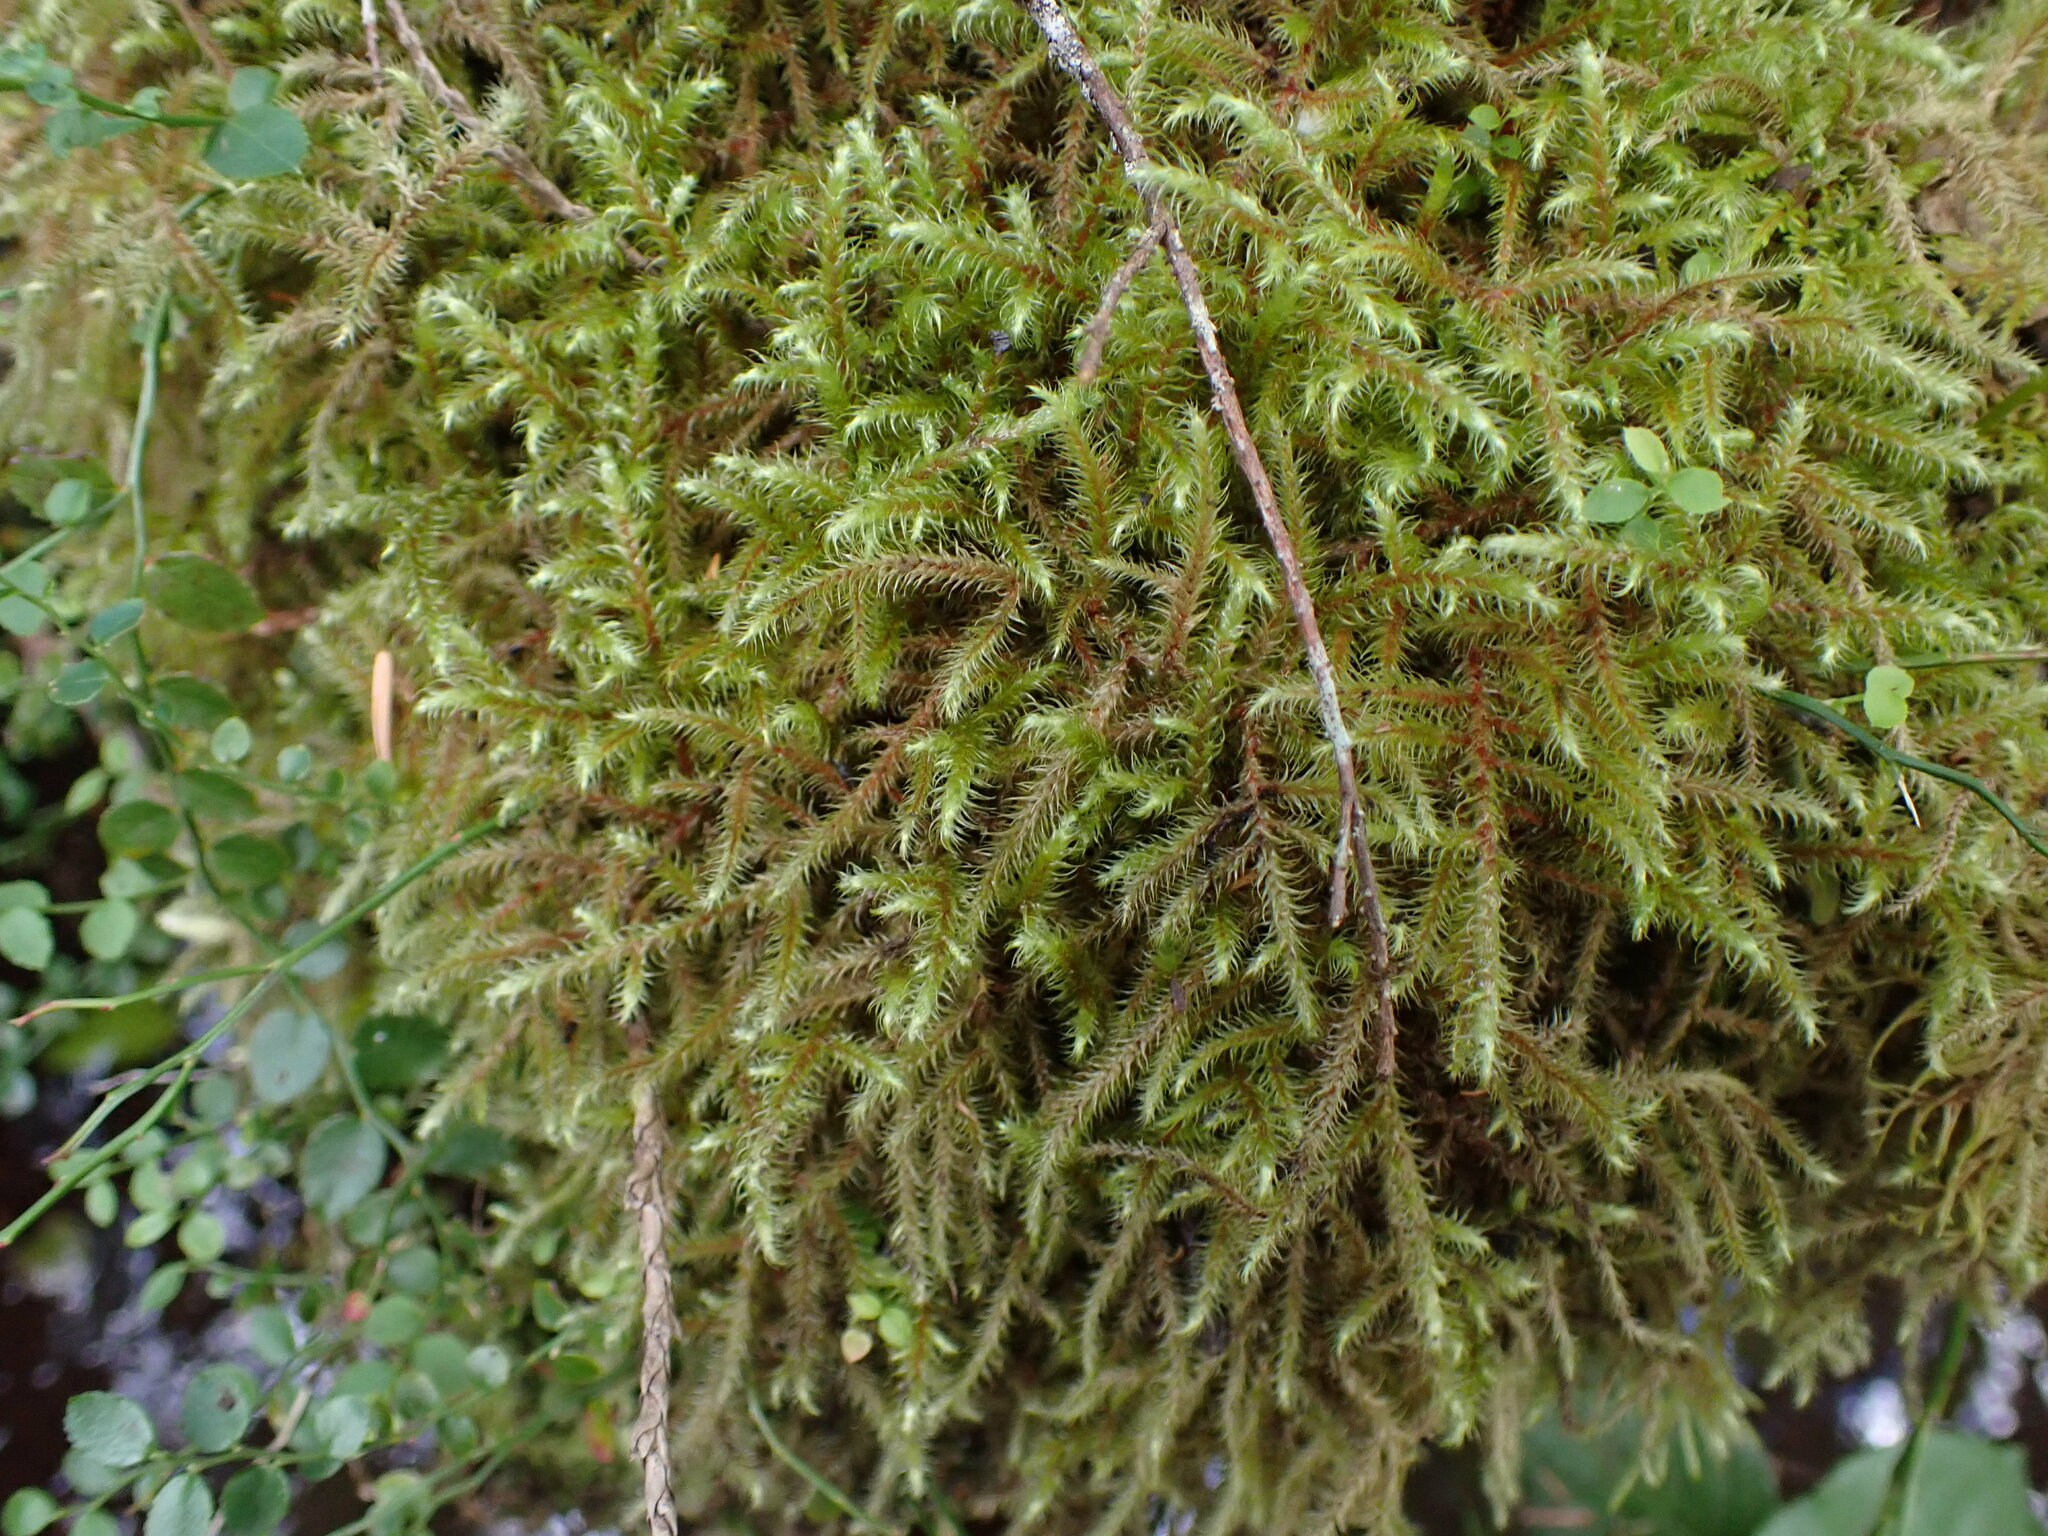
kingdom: Plantae
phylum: Bryophyta
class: Bryopsida
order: Hypnales
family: Hylocomiaceae
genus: Rhytidiadelphus
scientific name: Rhytidiadelphus loreus
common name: Lanky moss
